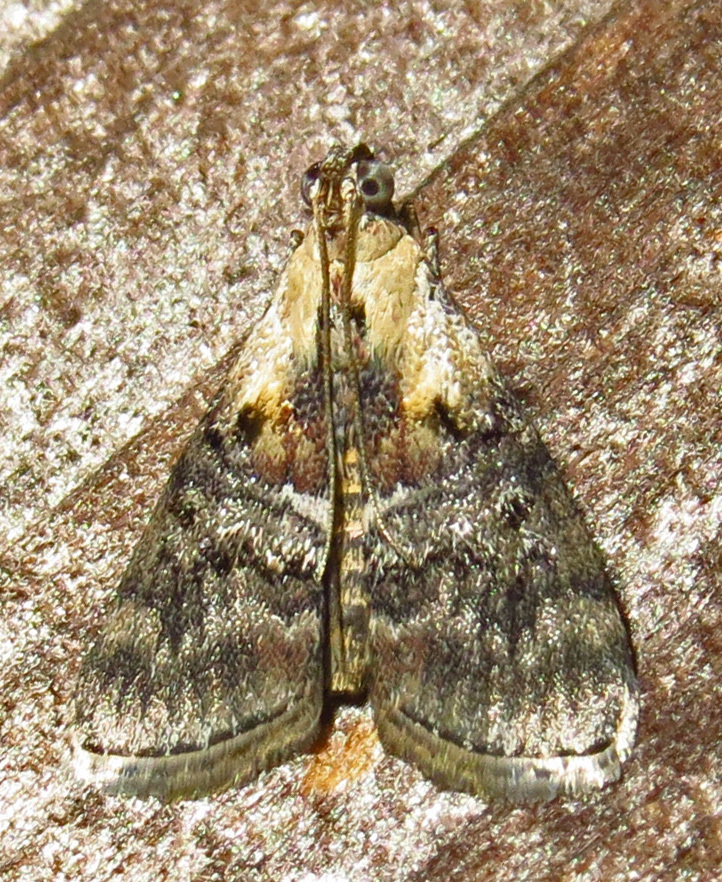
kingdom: Animalia
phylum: Arthropoda
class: Insecta
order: Lepidoptera
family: Pyralidae
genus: Pococera
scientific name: Pococera expandens
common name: Striped oak webworm moth
